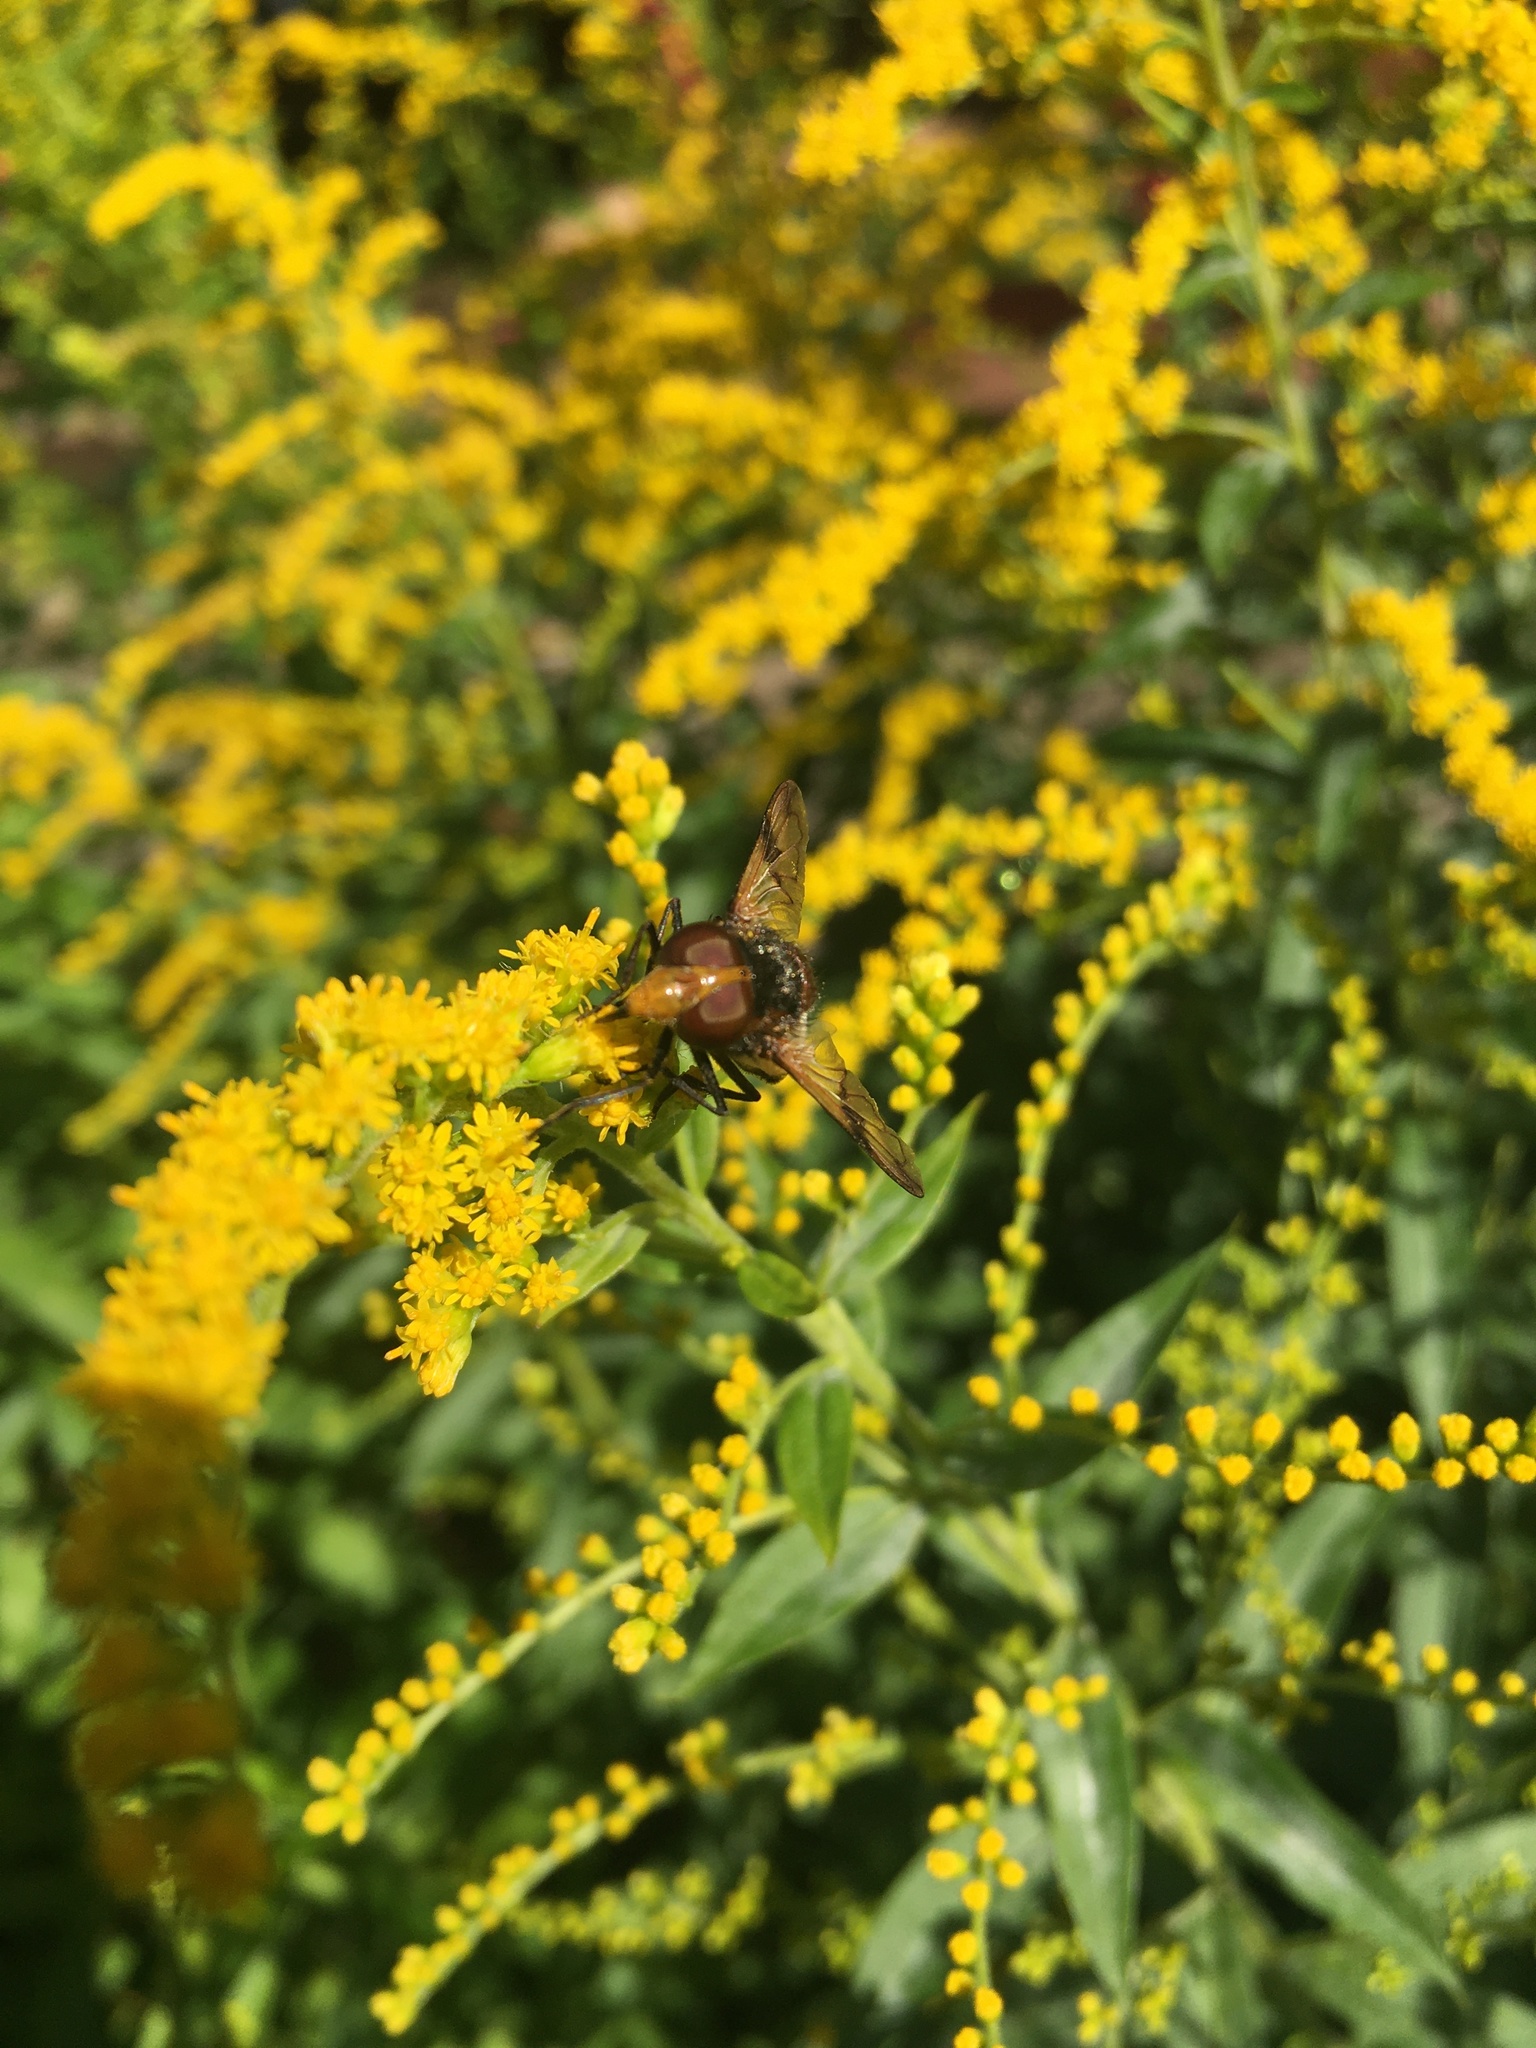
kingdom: Animalia
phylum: Arthropoda
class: Insecta
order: Diptera
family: Syrphidae
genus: Volucella
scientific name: Volucella pellucens
